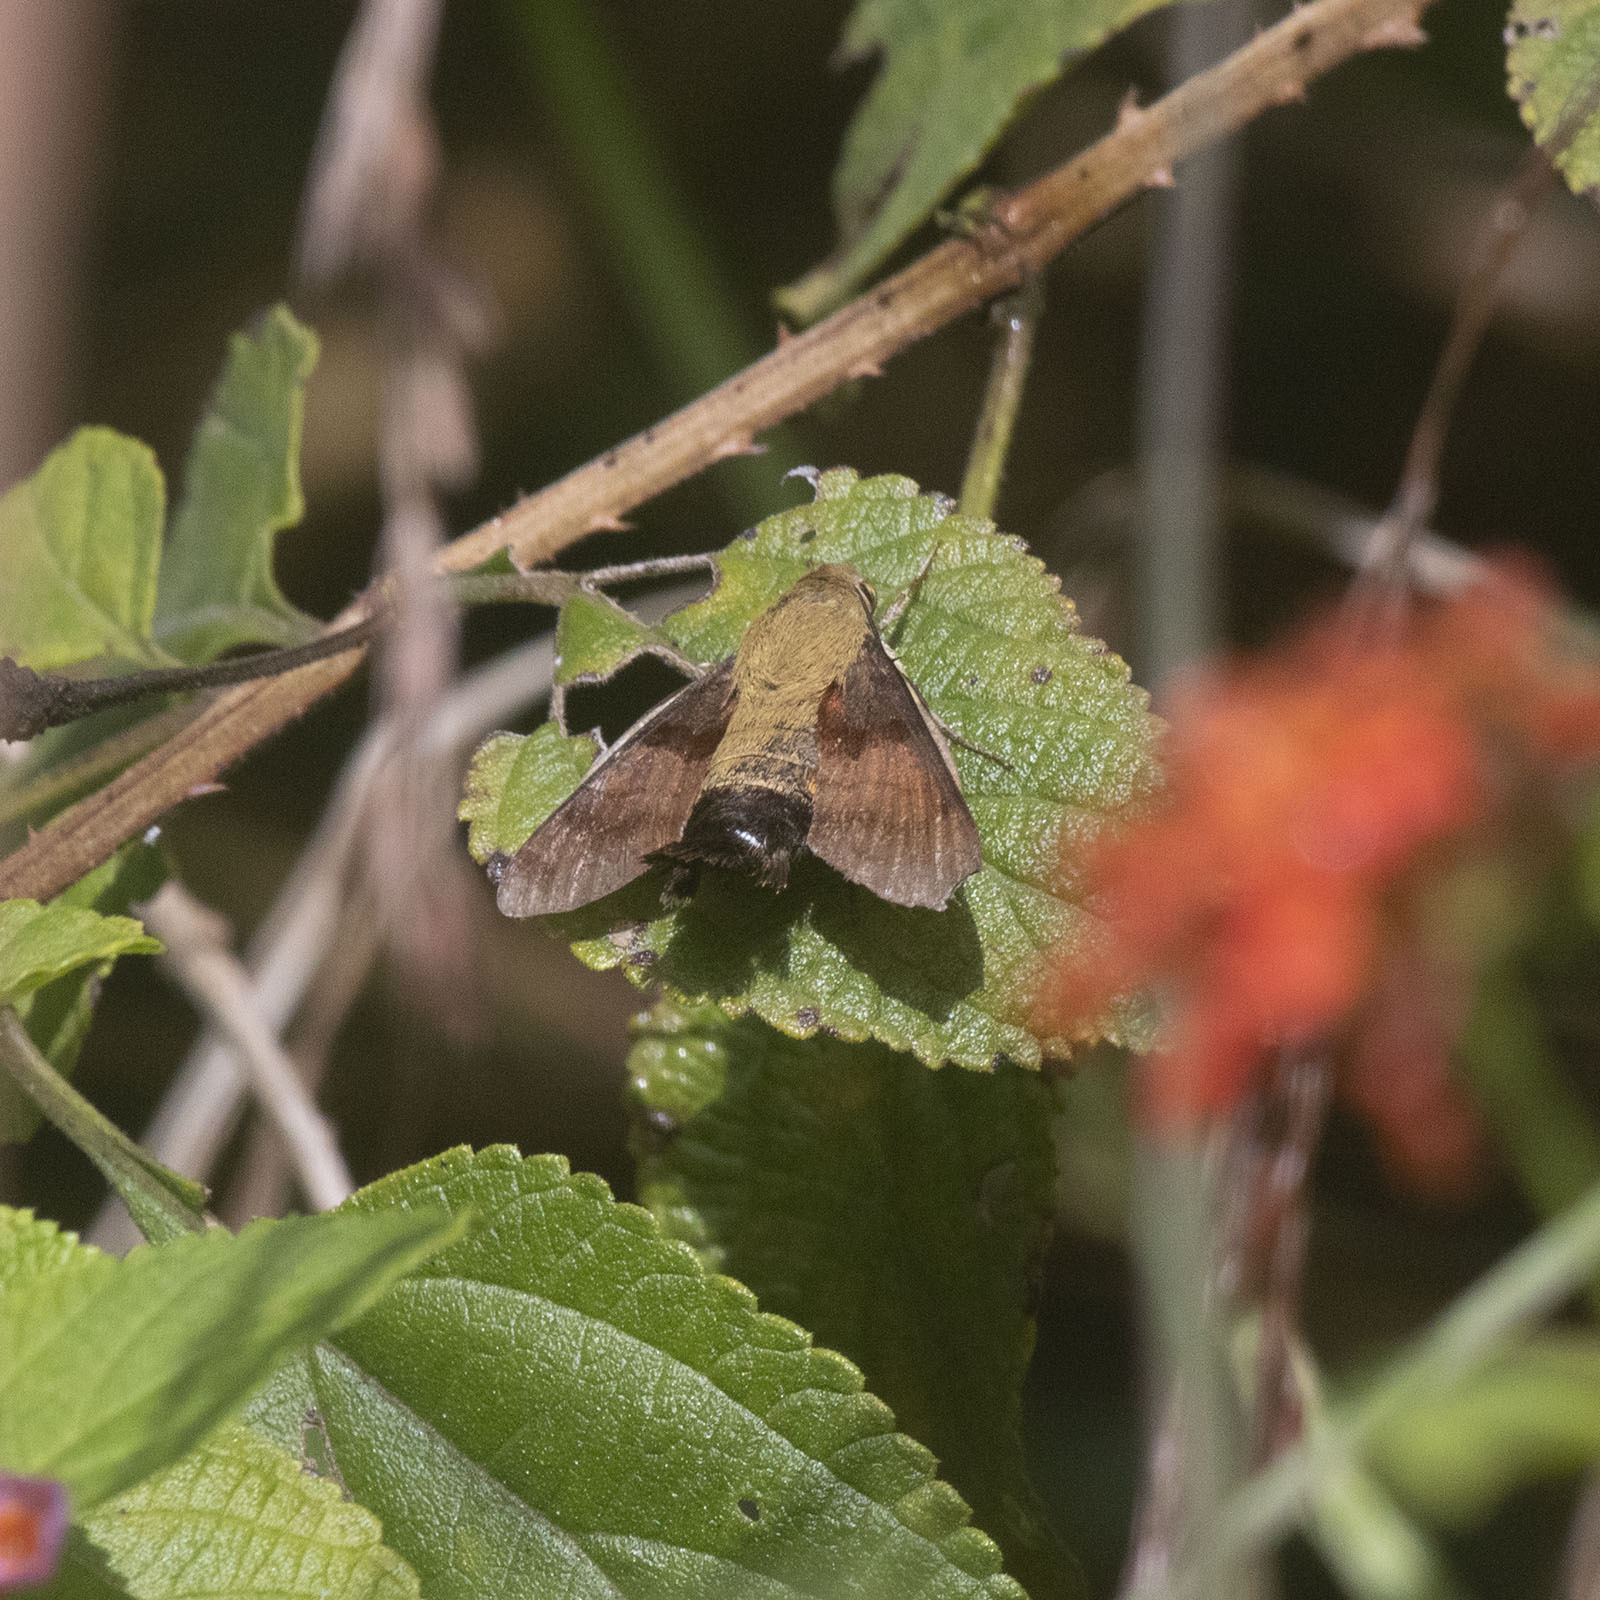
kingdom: Animalia
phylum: Arthropoda
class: Insecta
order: Lepidoptera
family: Sphingidae
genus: Macroglossum
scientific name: Macroglossum regulus
